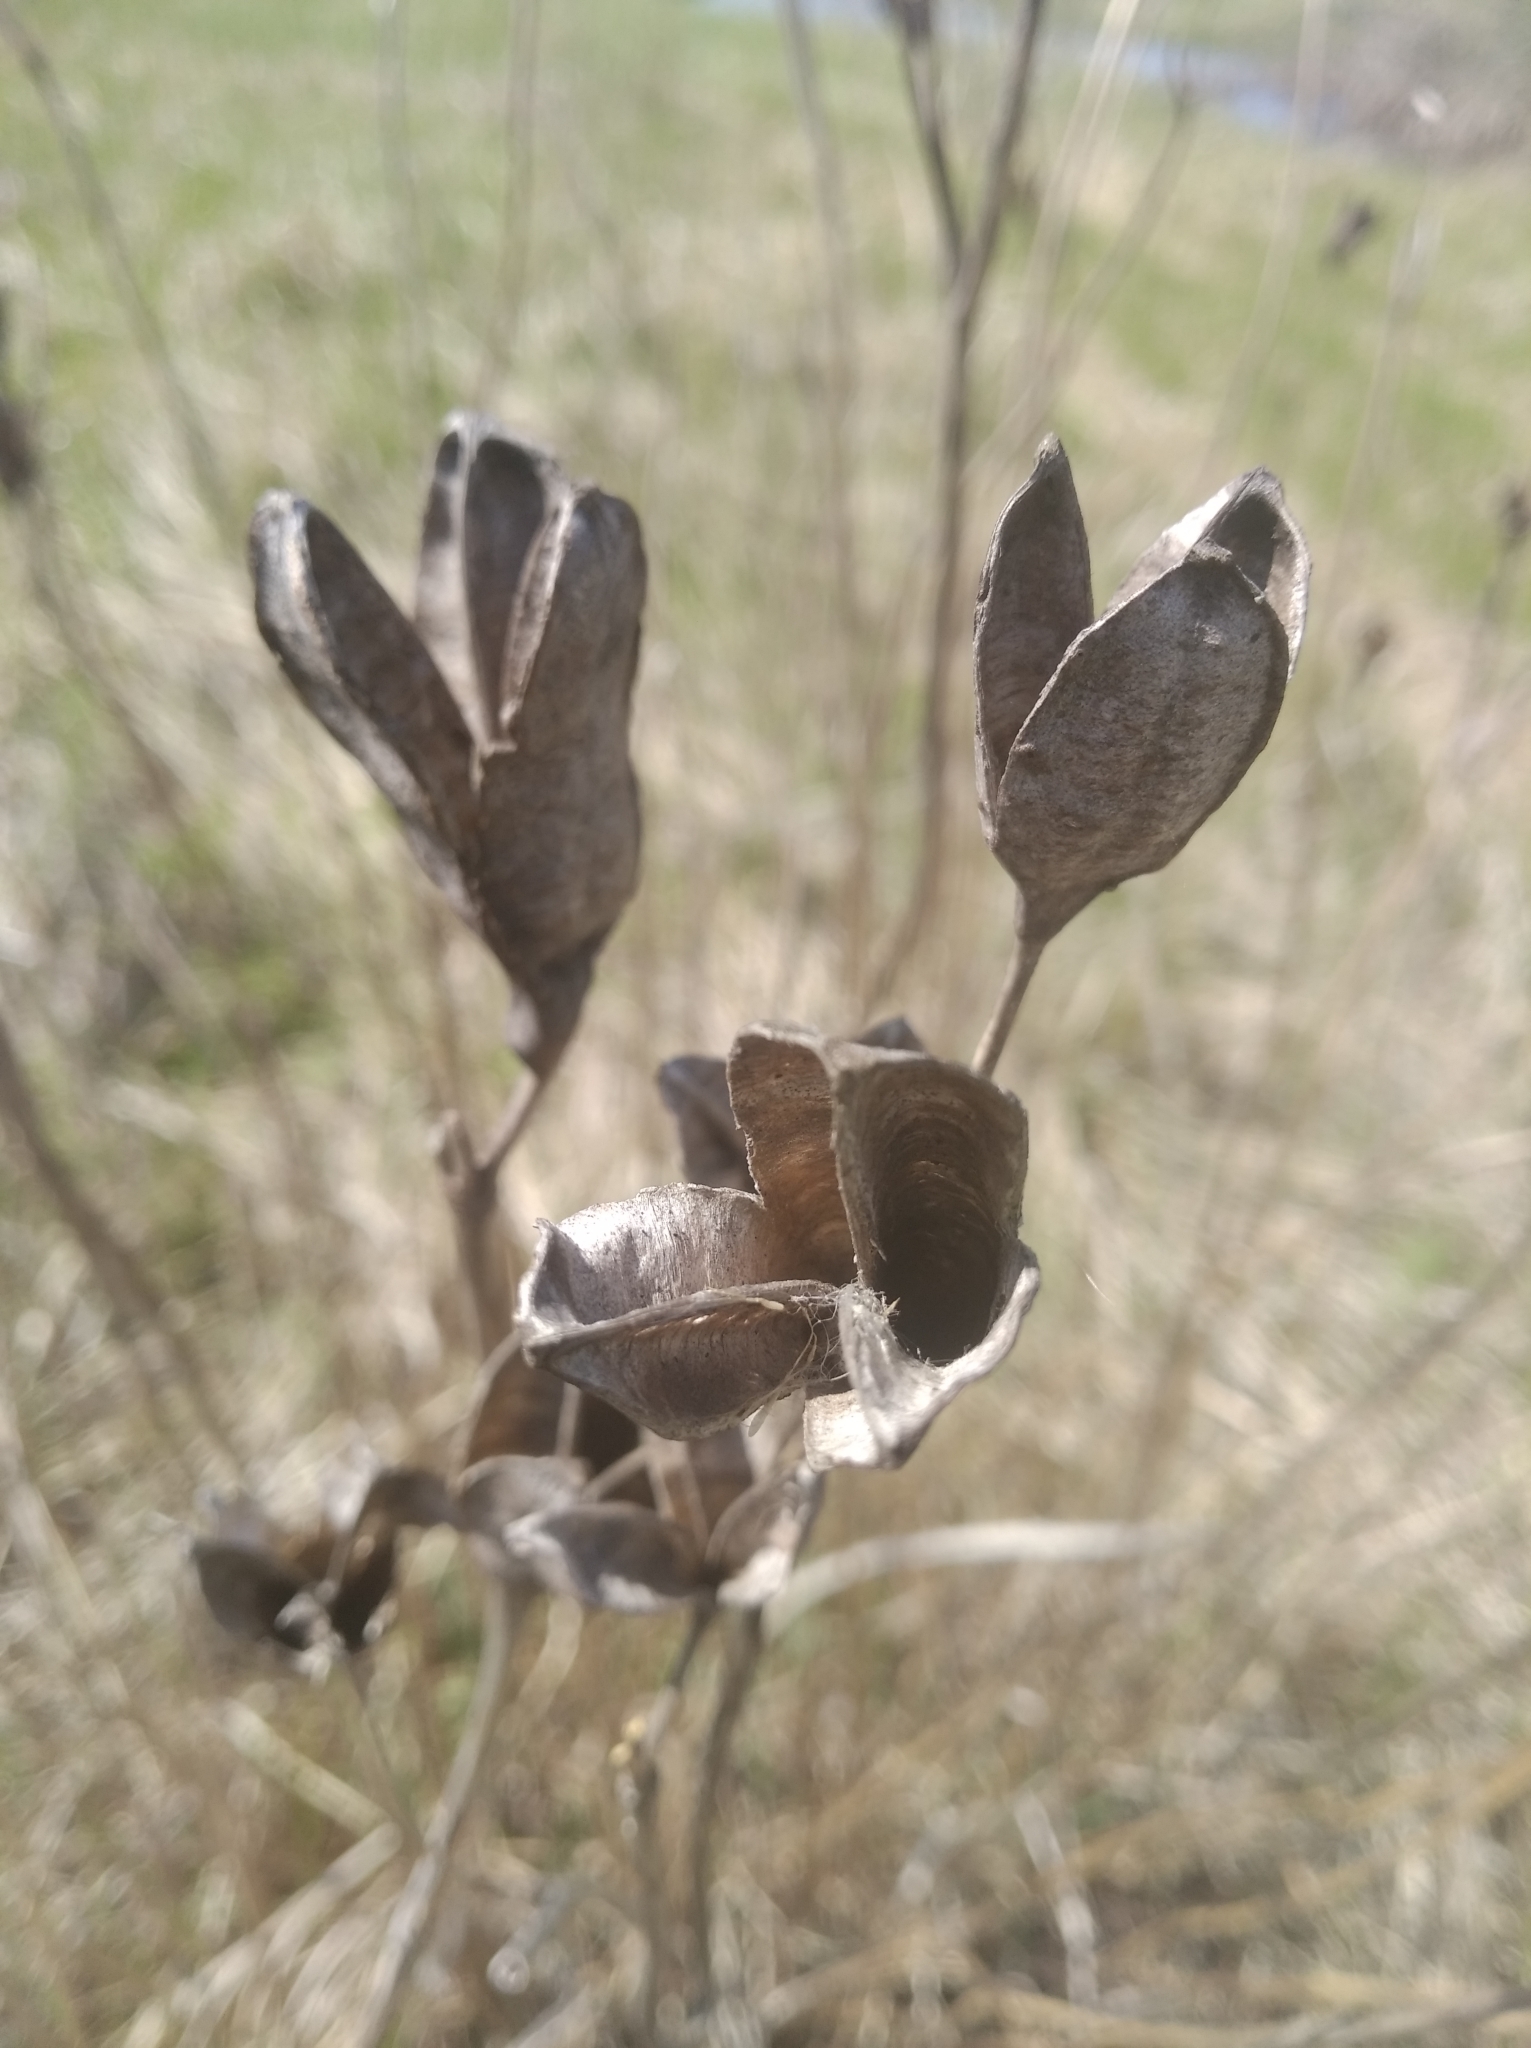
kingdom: Plantae
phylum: Tracheophyta
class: Liliopsida
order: Asparagales
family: Iridaceae
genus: Iris
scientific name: Iris sibirica
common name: Siberian iris
